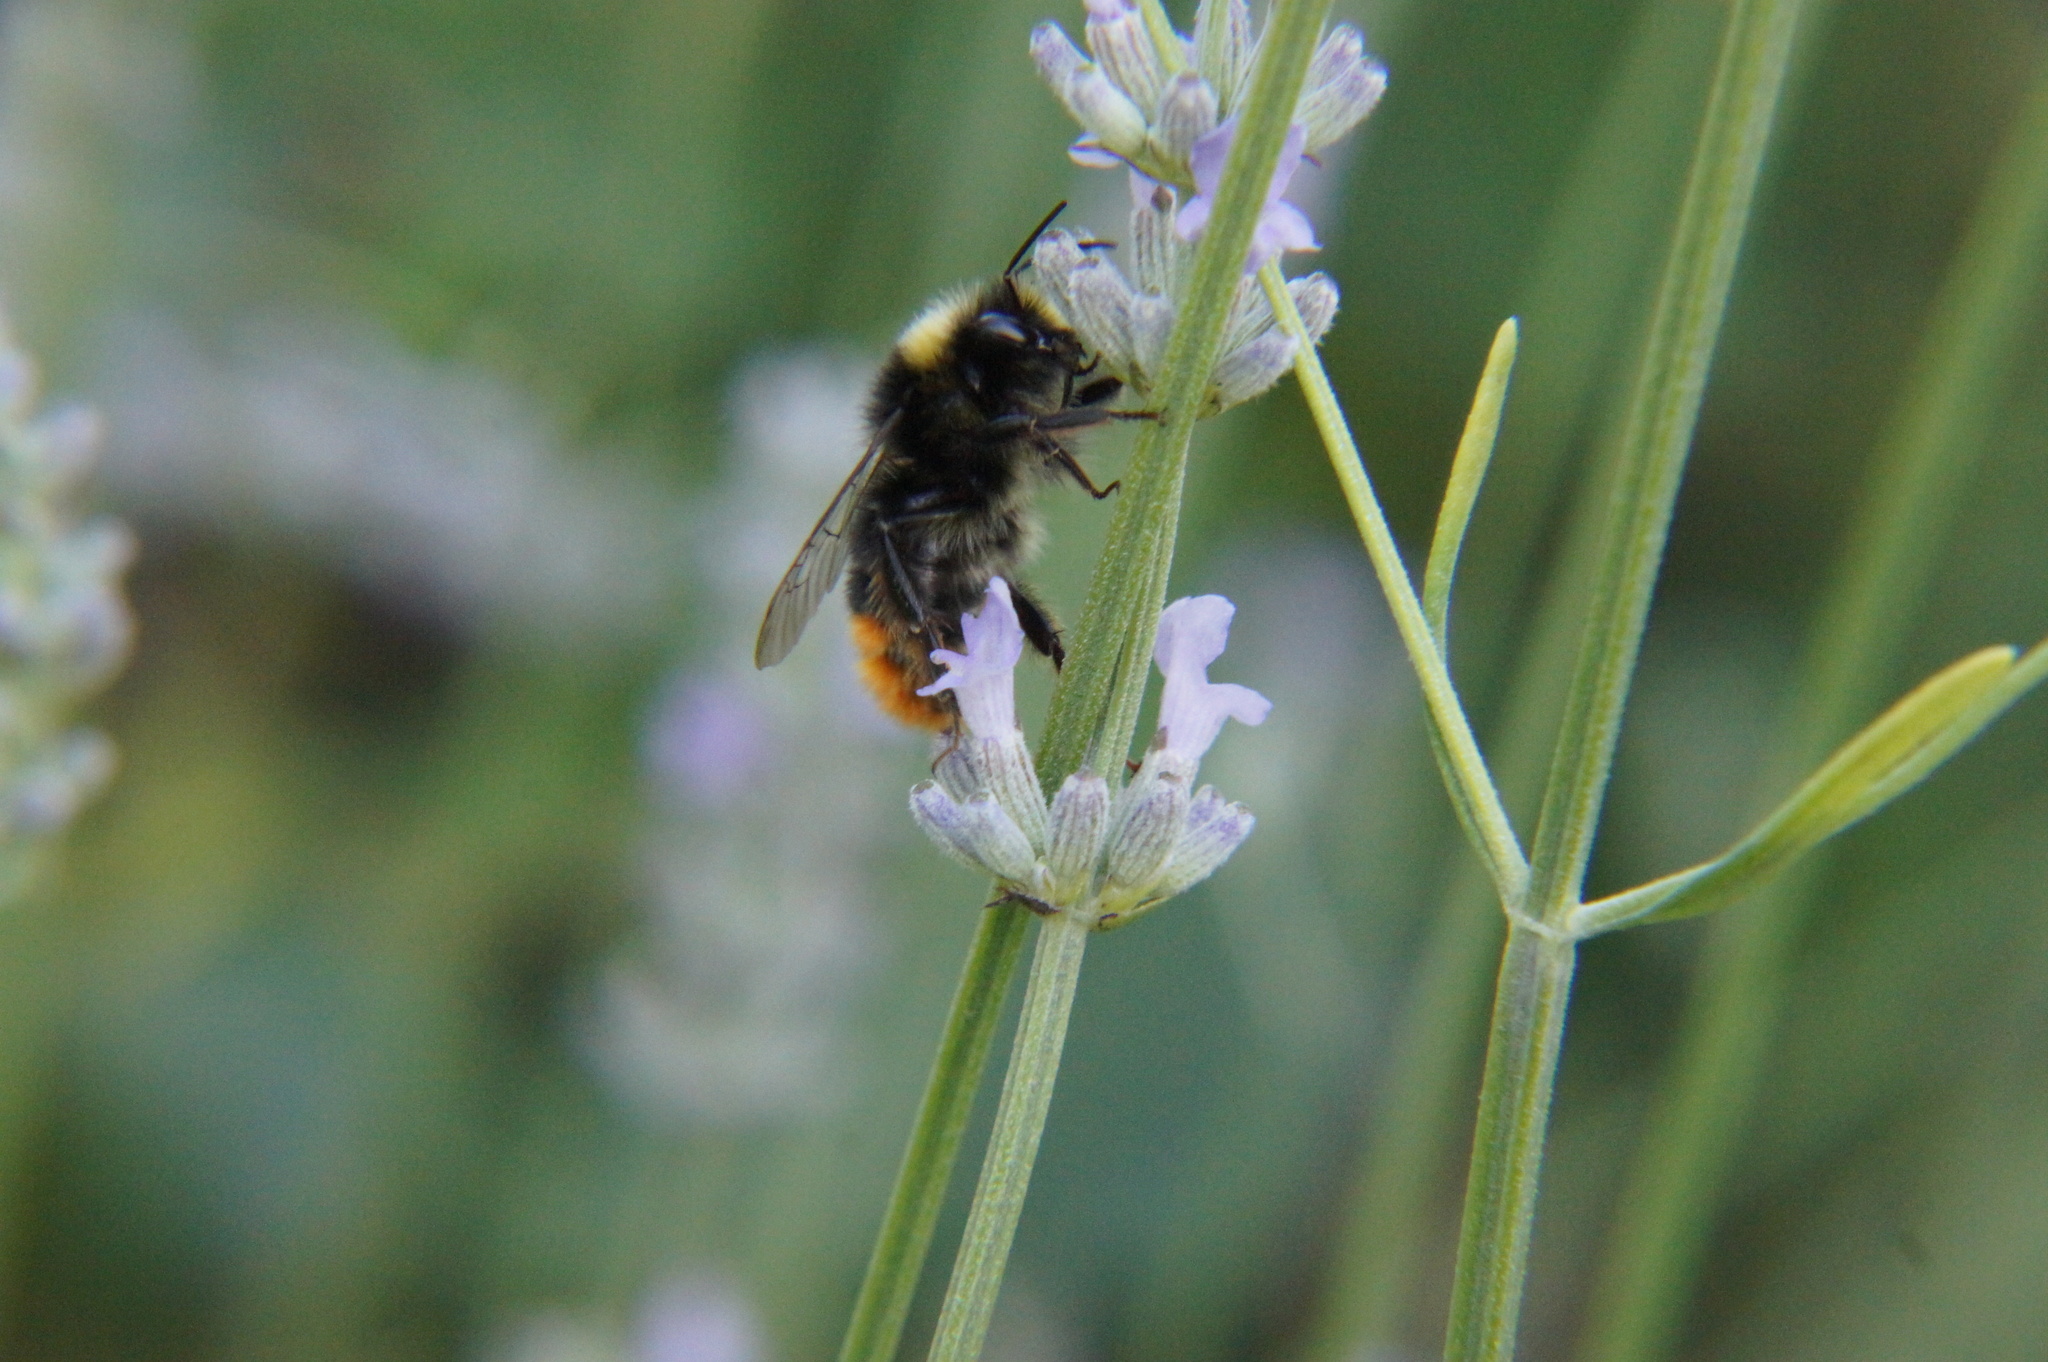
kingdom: Animalia
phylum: Arthropoda
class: Insecta
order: Hymenoptera
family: Apidae
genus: Bombus
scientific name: Bombus lapidarius
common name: Large red-tailed humble-bee
